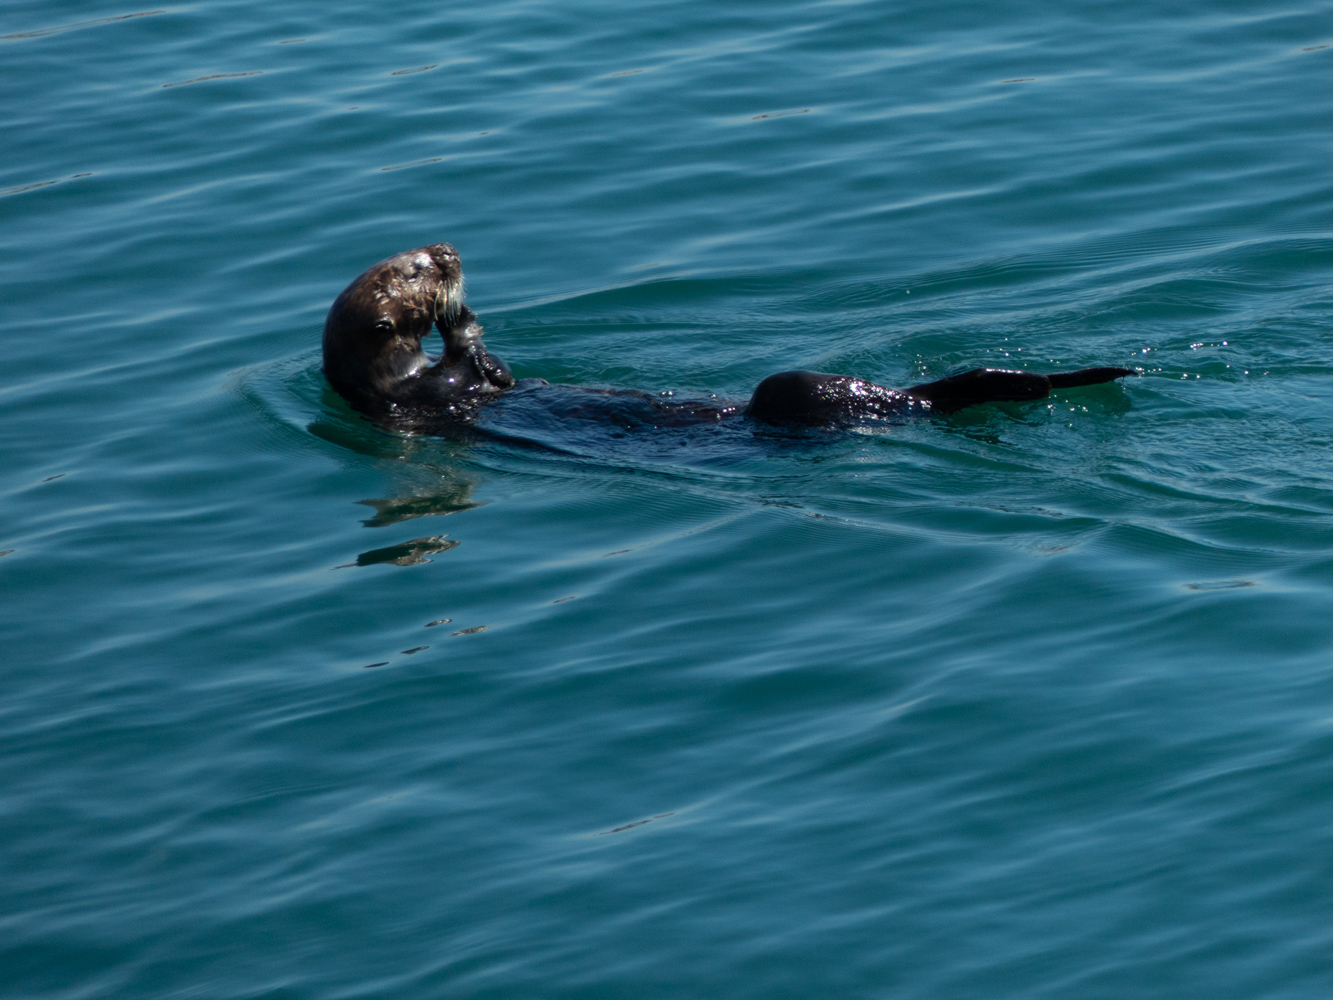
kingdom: Animalia
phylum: Chordata
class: Mammalia
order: Carnivora
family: Mustelidae
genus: Enhydra
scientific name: Enhydra lutris
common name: Sea otter
